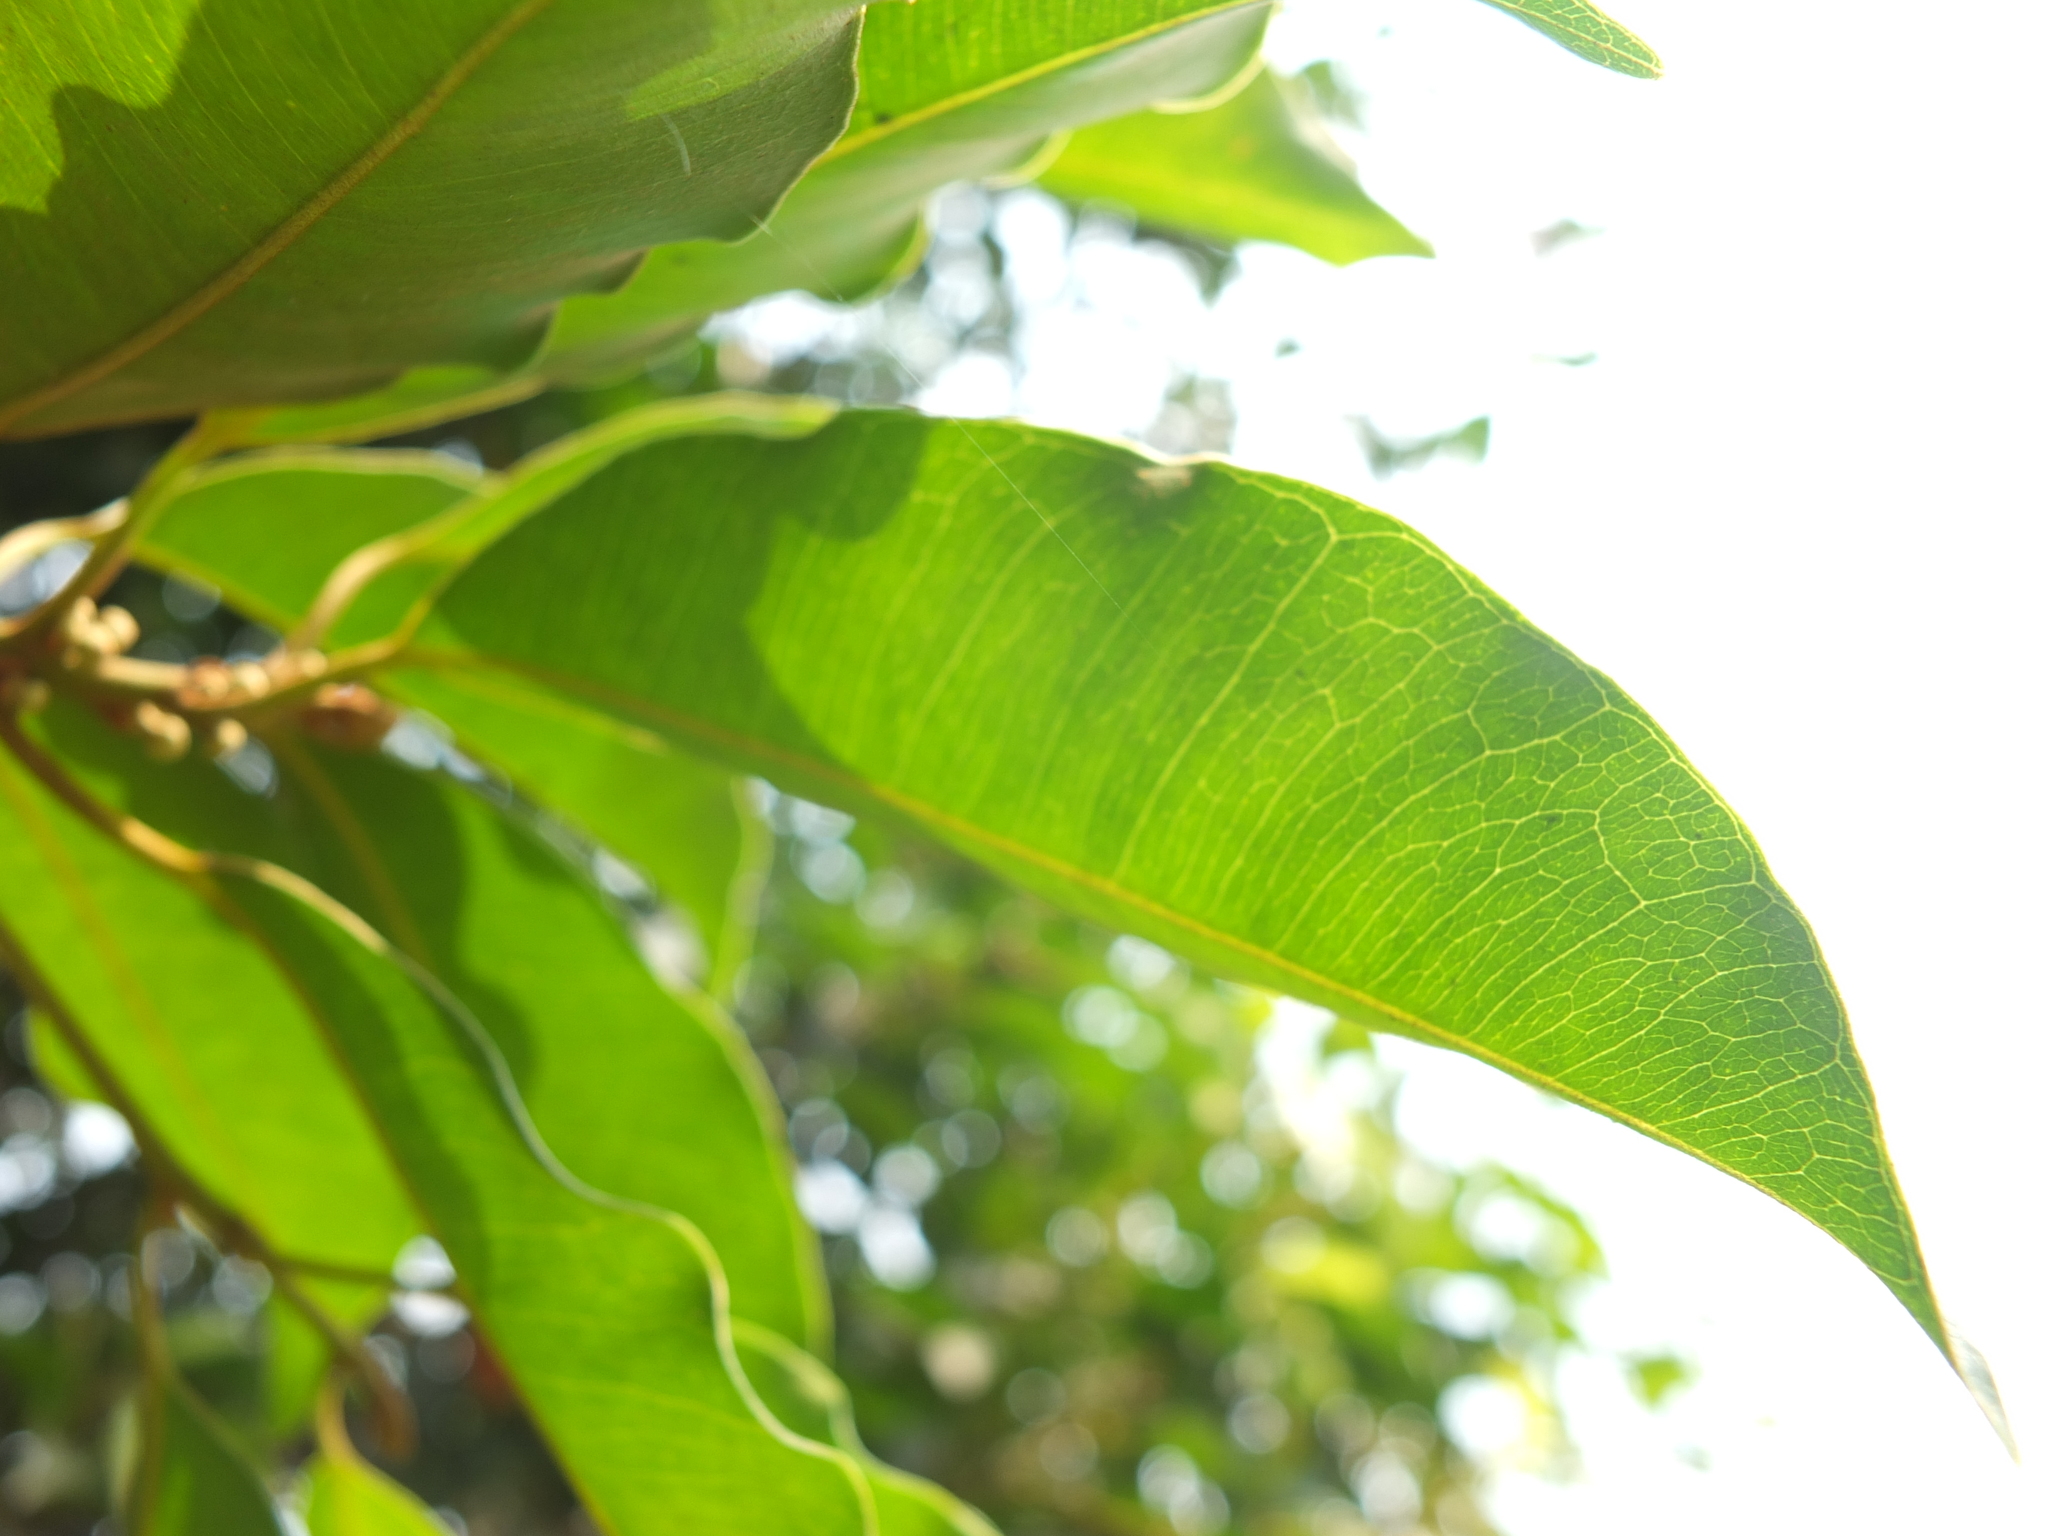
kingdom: Plantae
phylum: Tracheophyta
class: Magnoliopsida
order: Ericales
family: Sapotaceae
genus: Mimusops
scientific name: Mimusops elengi
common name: Spanish cherry
